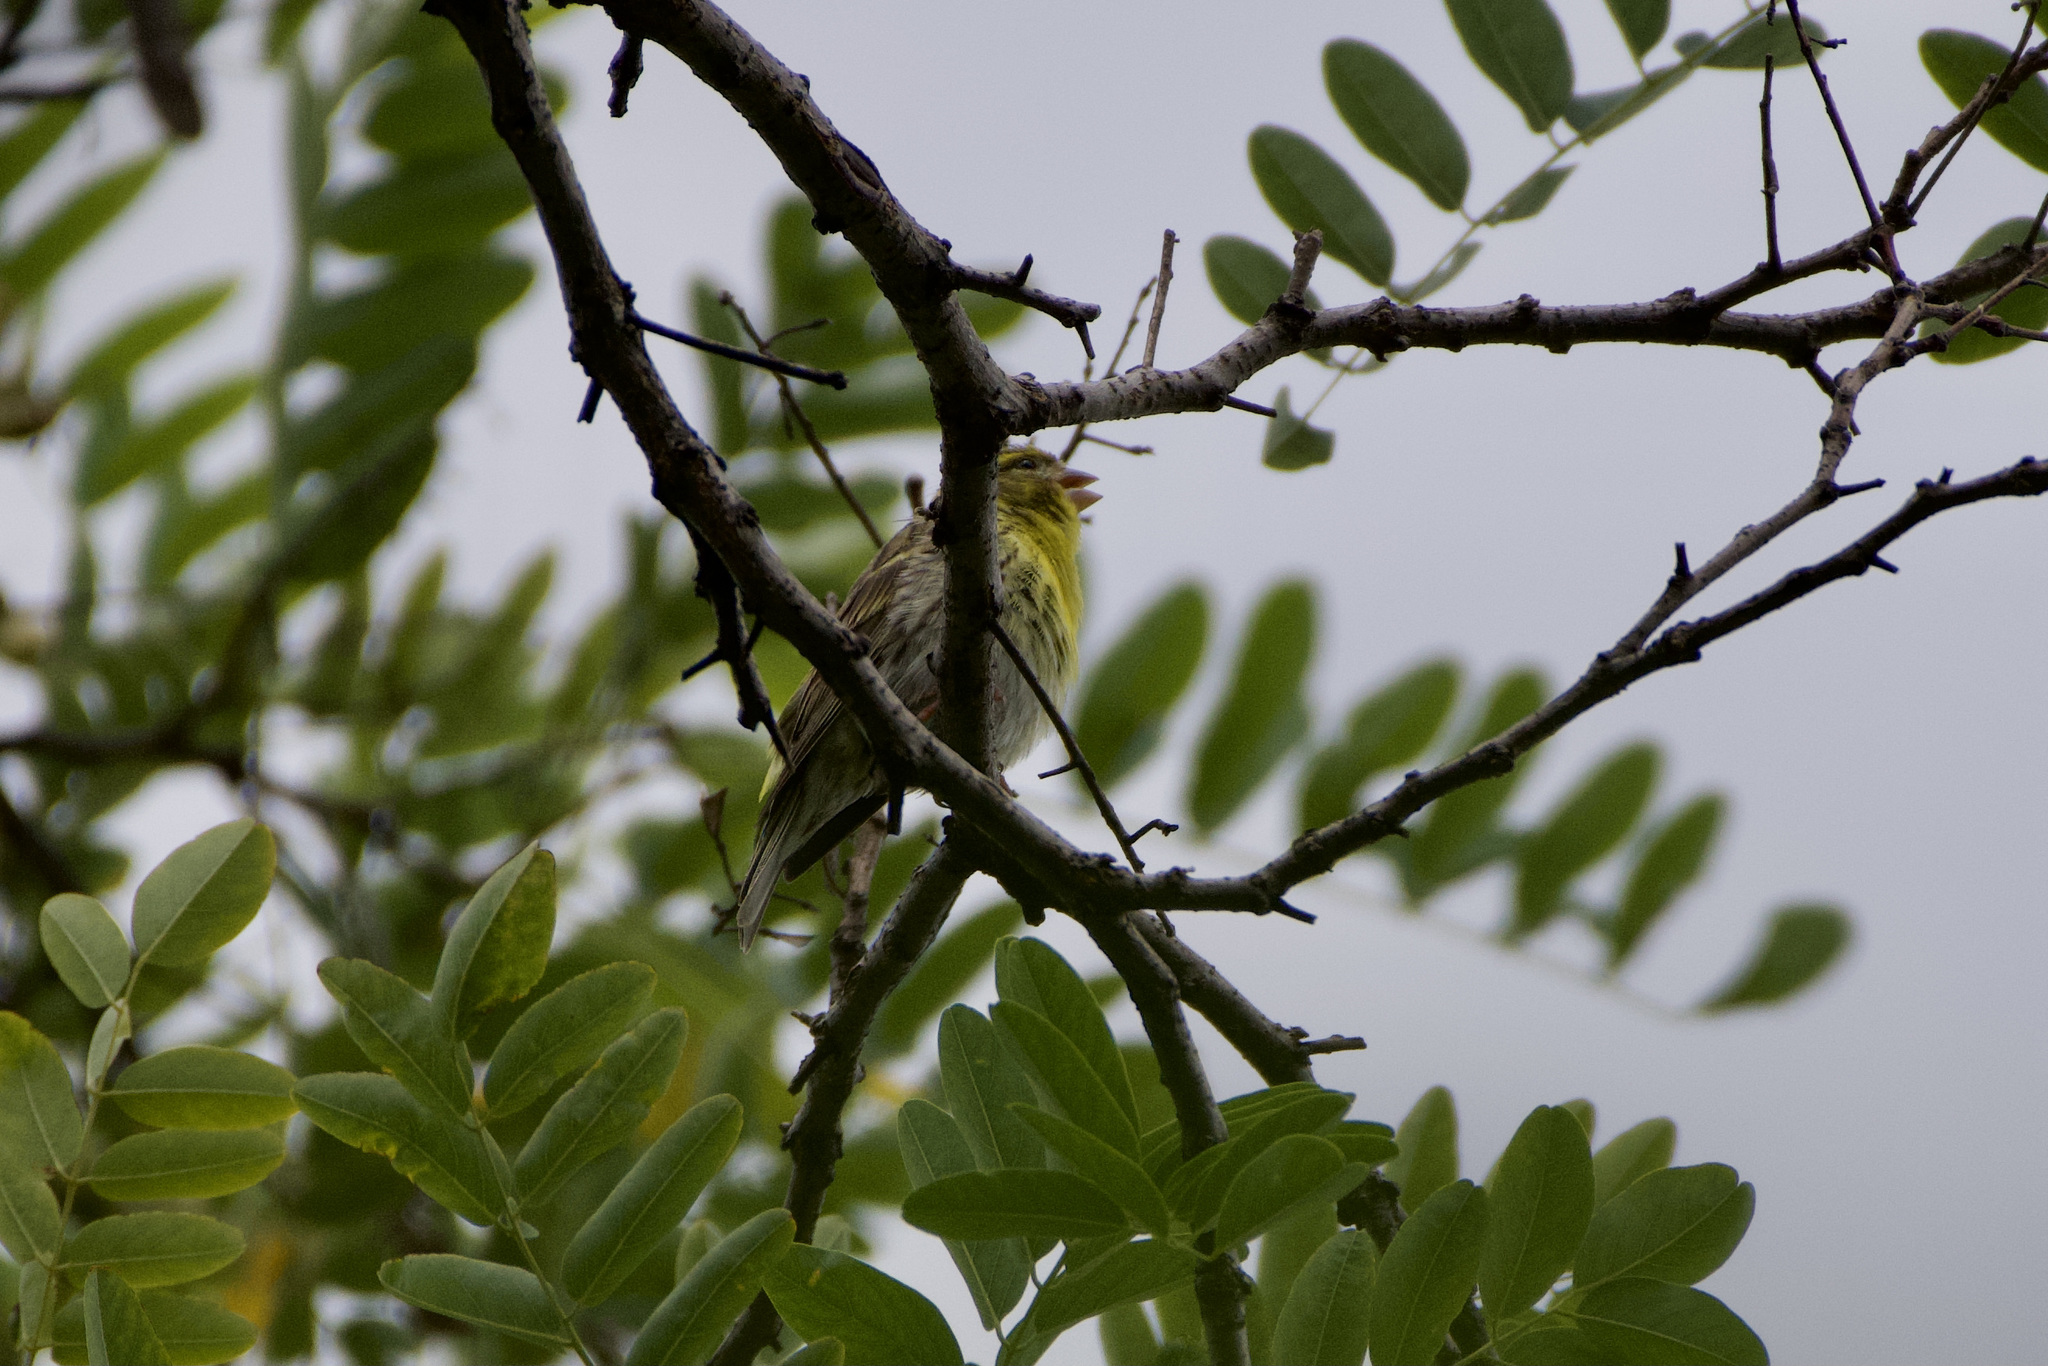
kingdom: Animalia
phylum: Chordata
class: Aves
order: Passeriformes
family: Fringillidae
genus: Serinus
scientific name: Serinus serinus
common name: European serin
